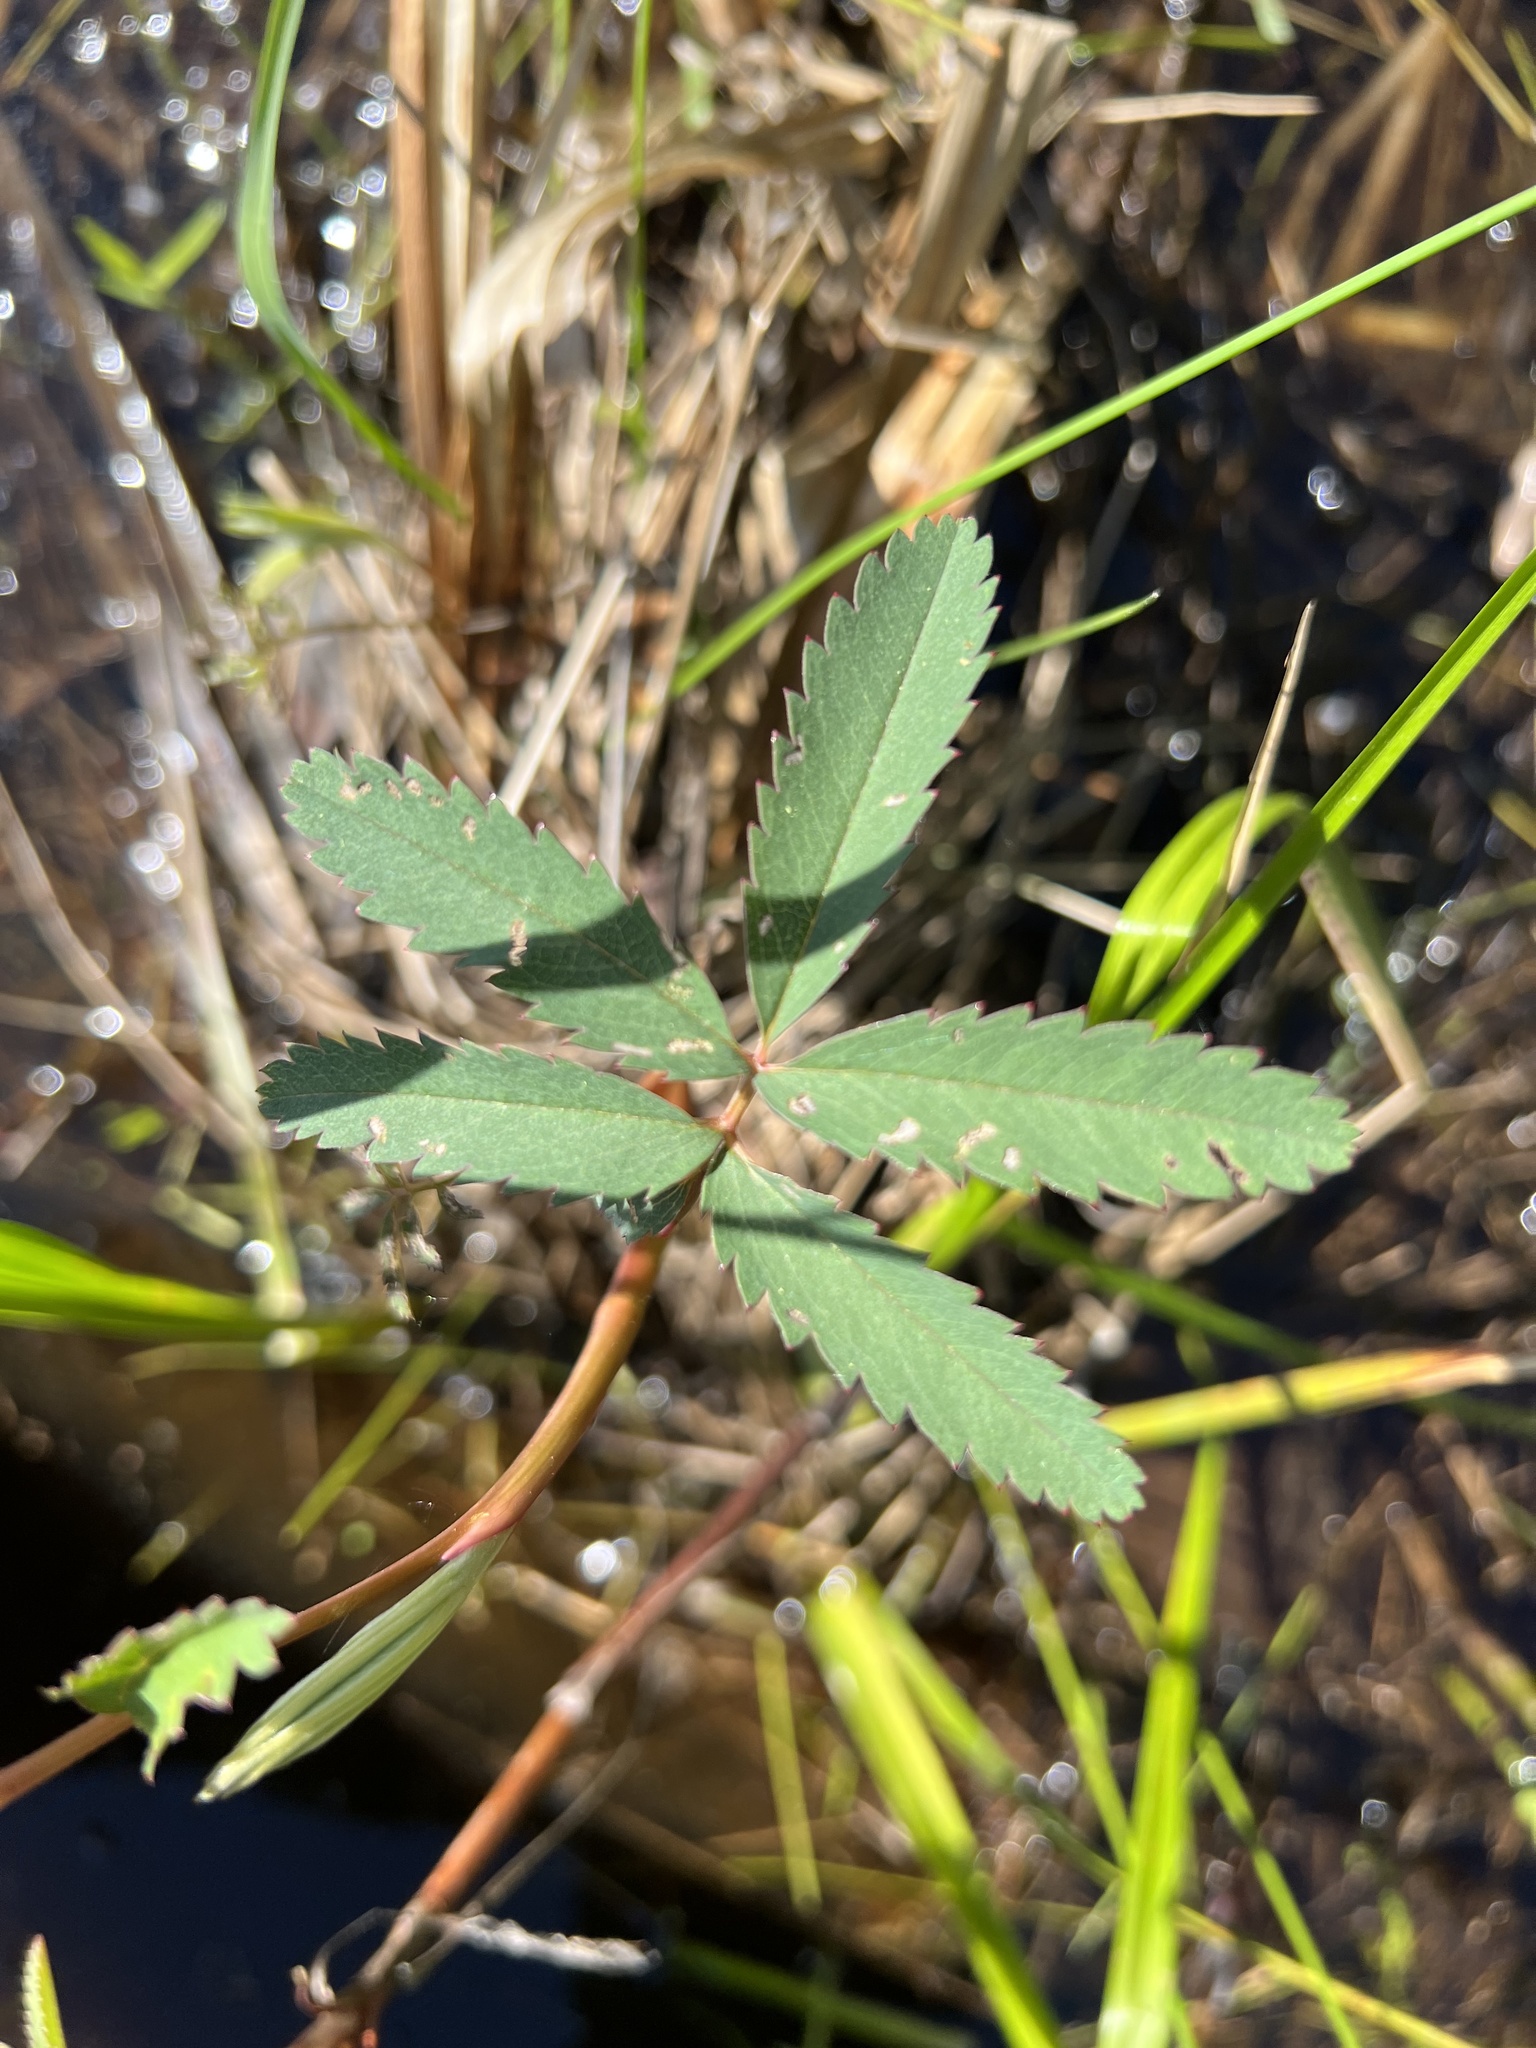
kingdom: Plantae
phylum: Tracheophyta
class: Magnoliopsida
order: Rosales
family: Rosaceae
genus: Comarum
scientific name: Comarum palustre
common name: Marsh cinquefoil
